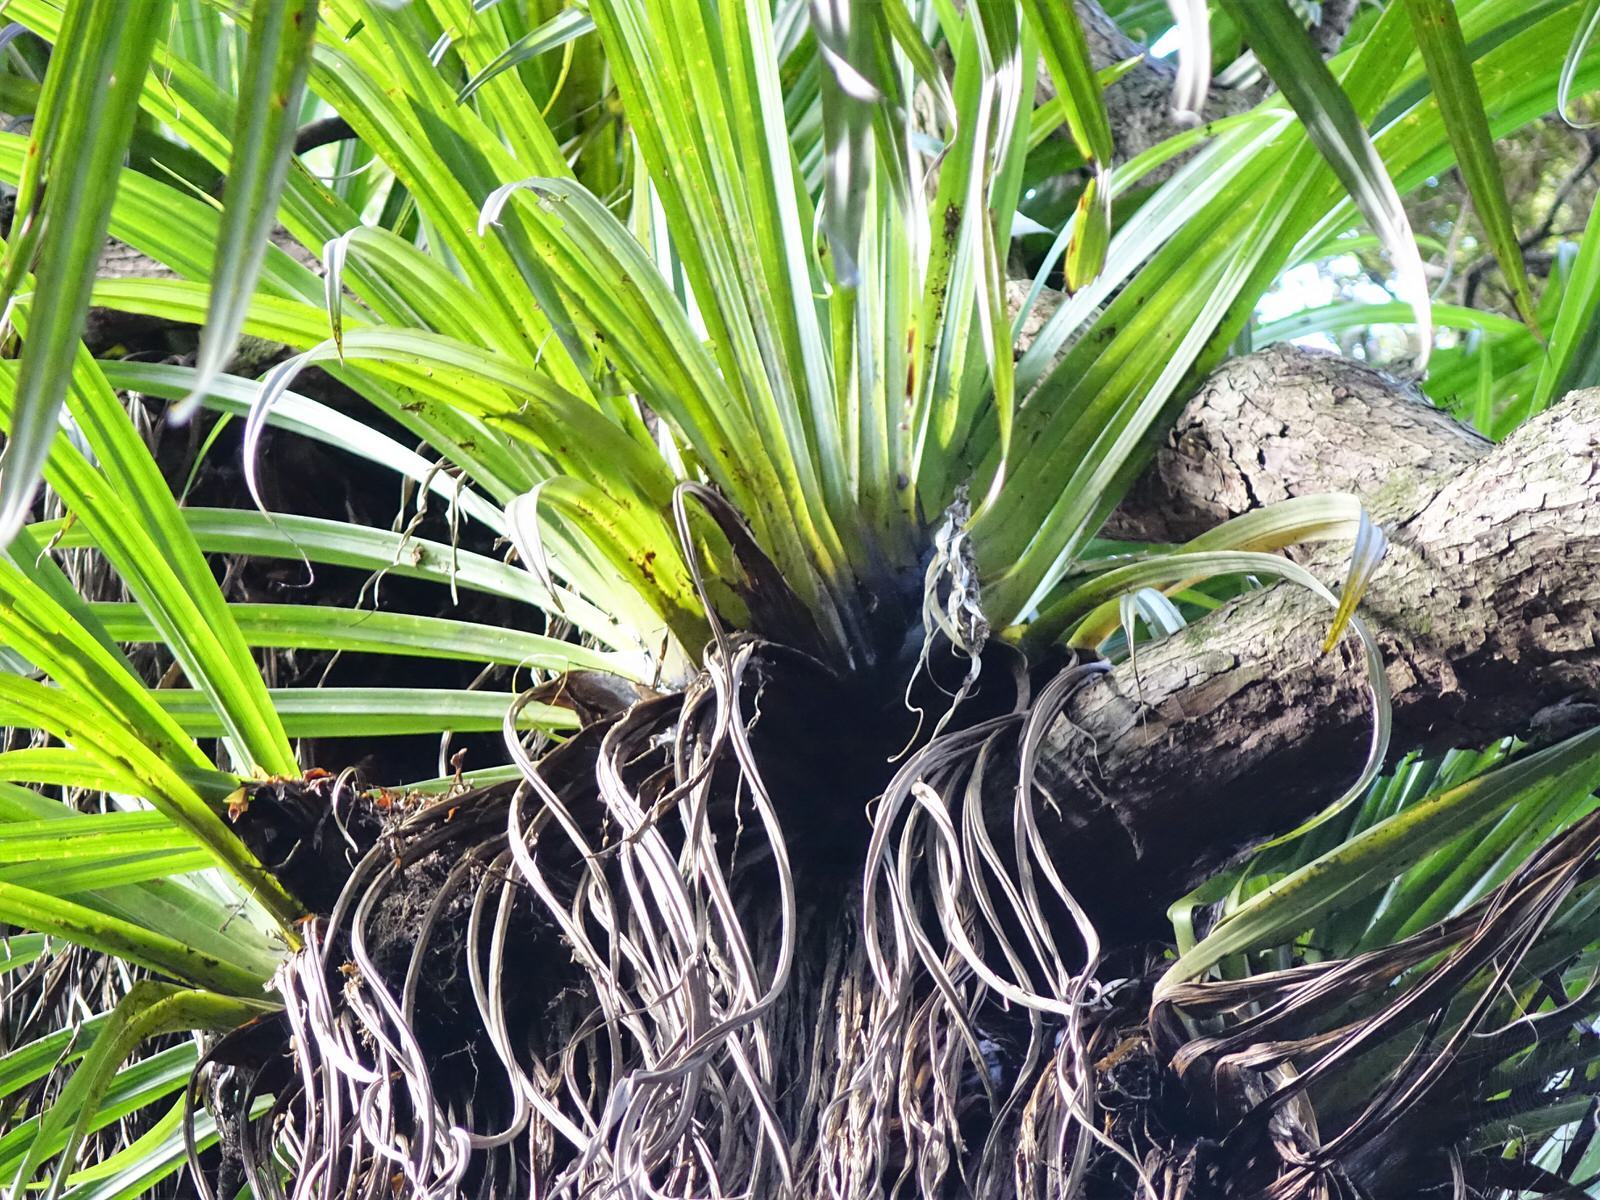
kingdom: Plantae
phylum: Tracheophyta
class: Liliopsida
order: Asparagales
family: Asteliaceae
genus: Astelia
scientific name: Astelia hastata
